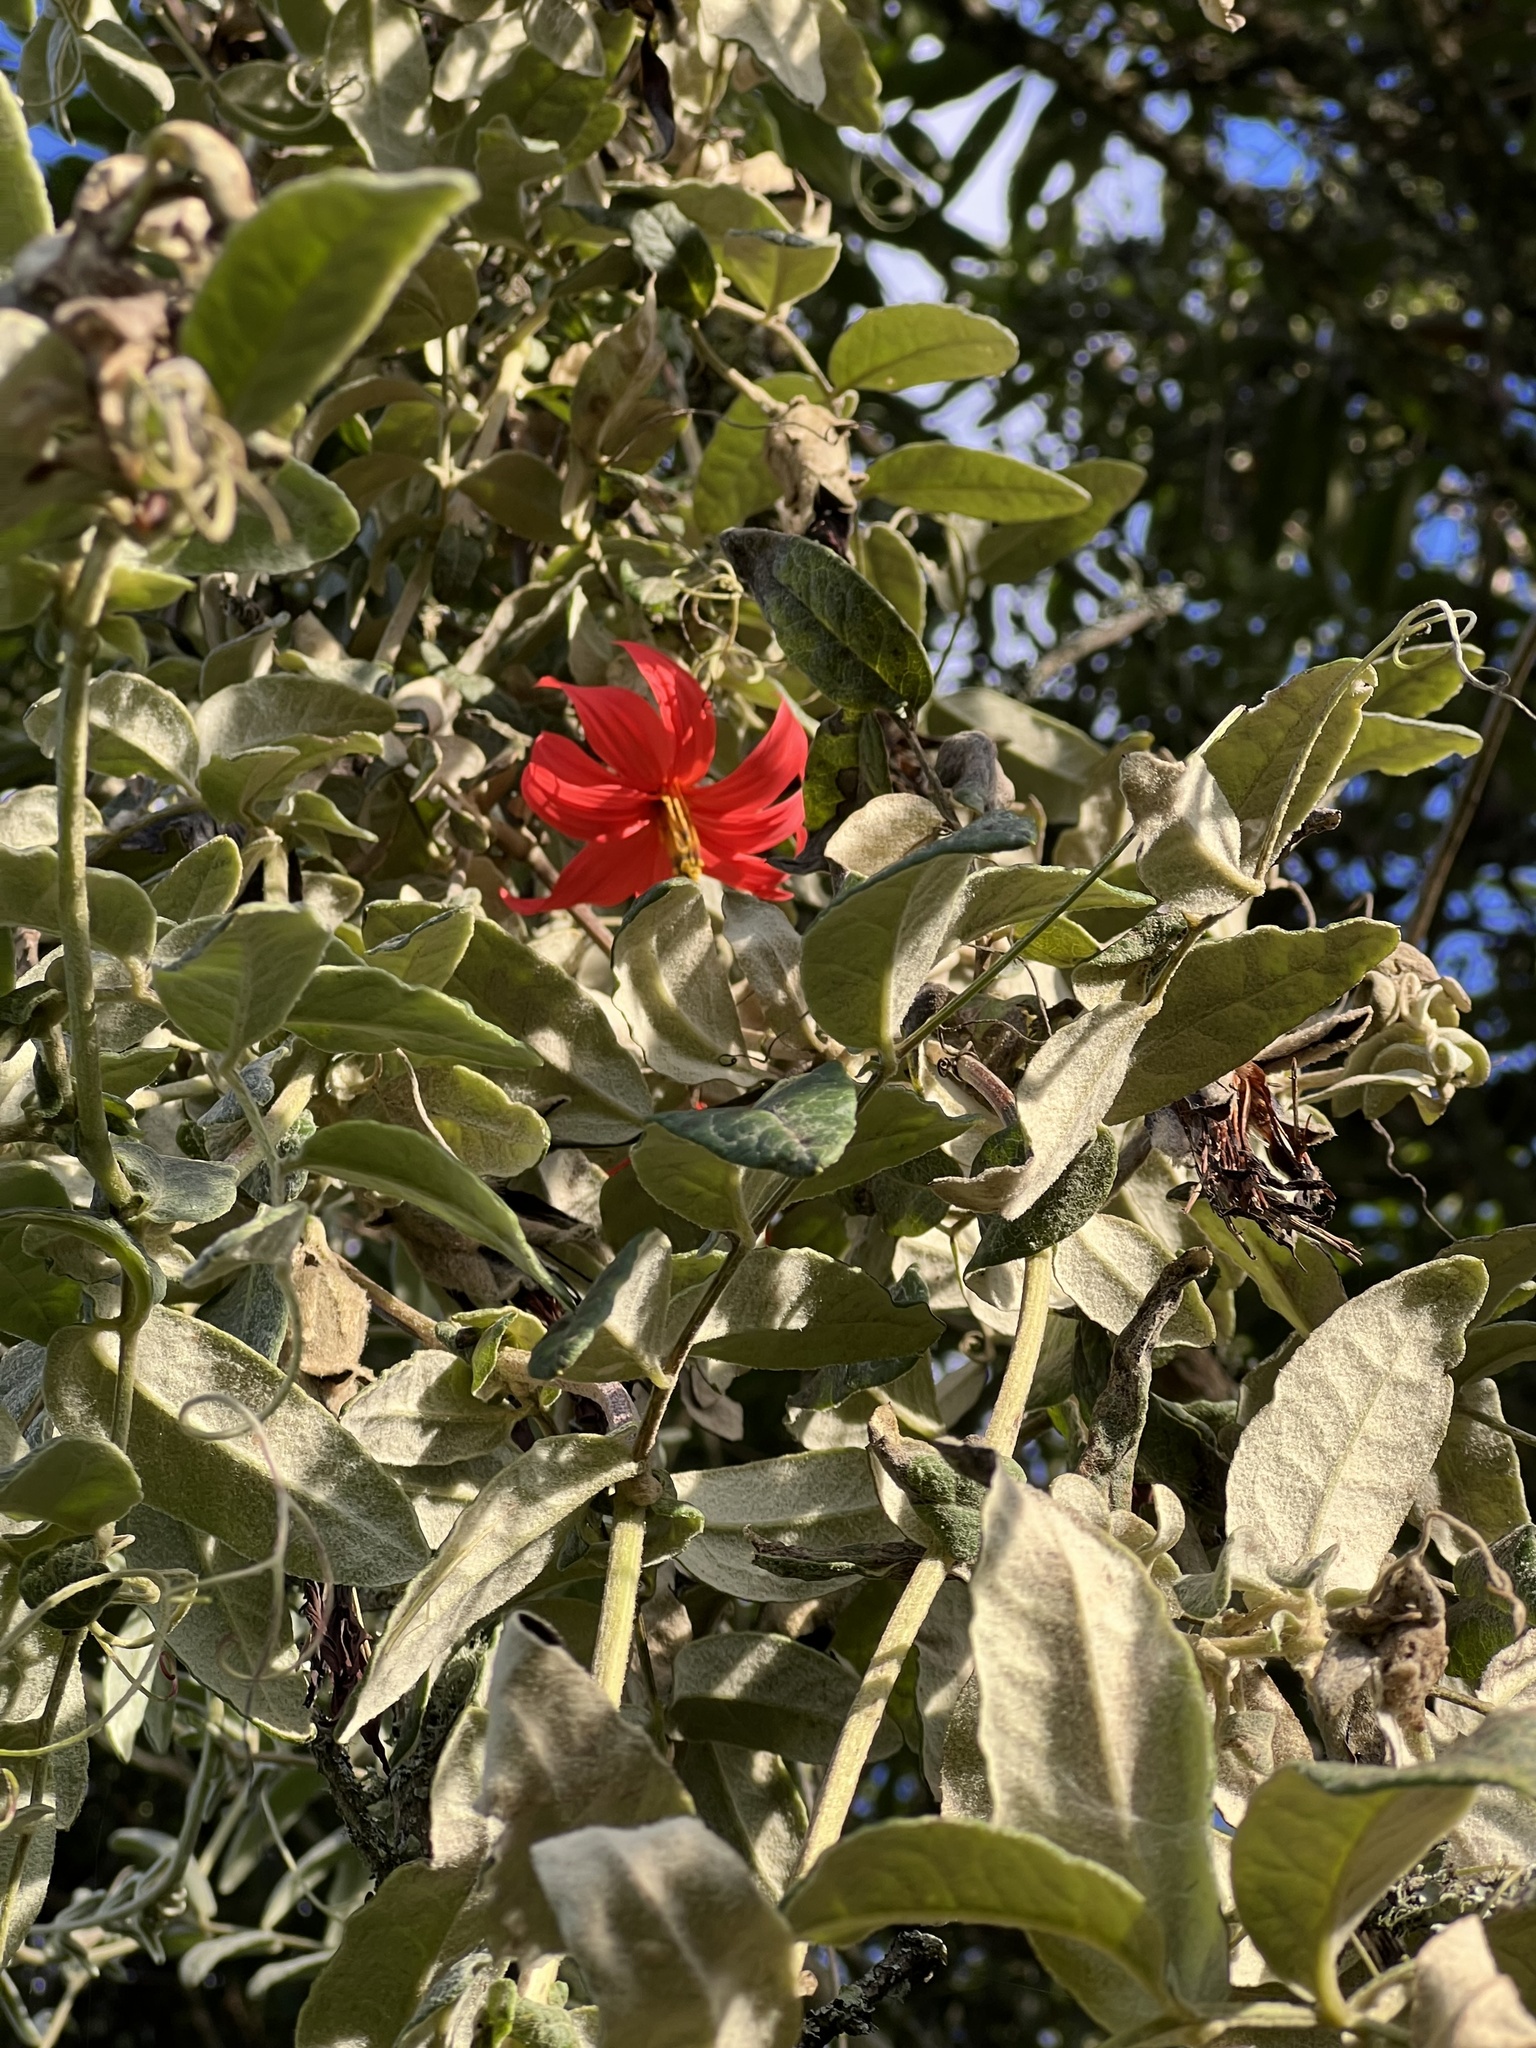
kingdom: Plantae
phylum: Tracheophyta
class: Magnoliopsida
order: Asterales
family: Asteraceae
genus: Mutisia
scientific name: Mutisia clematis
